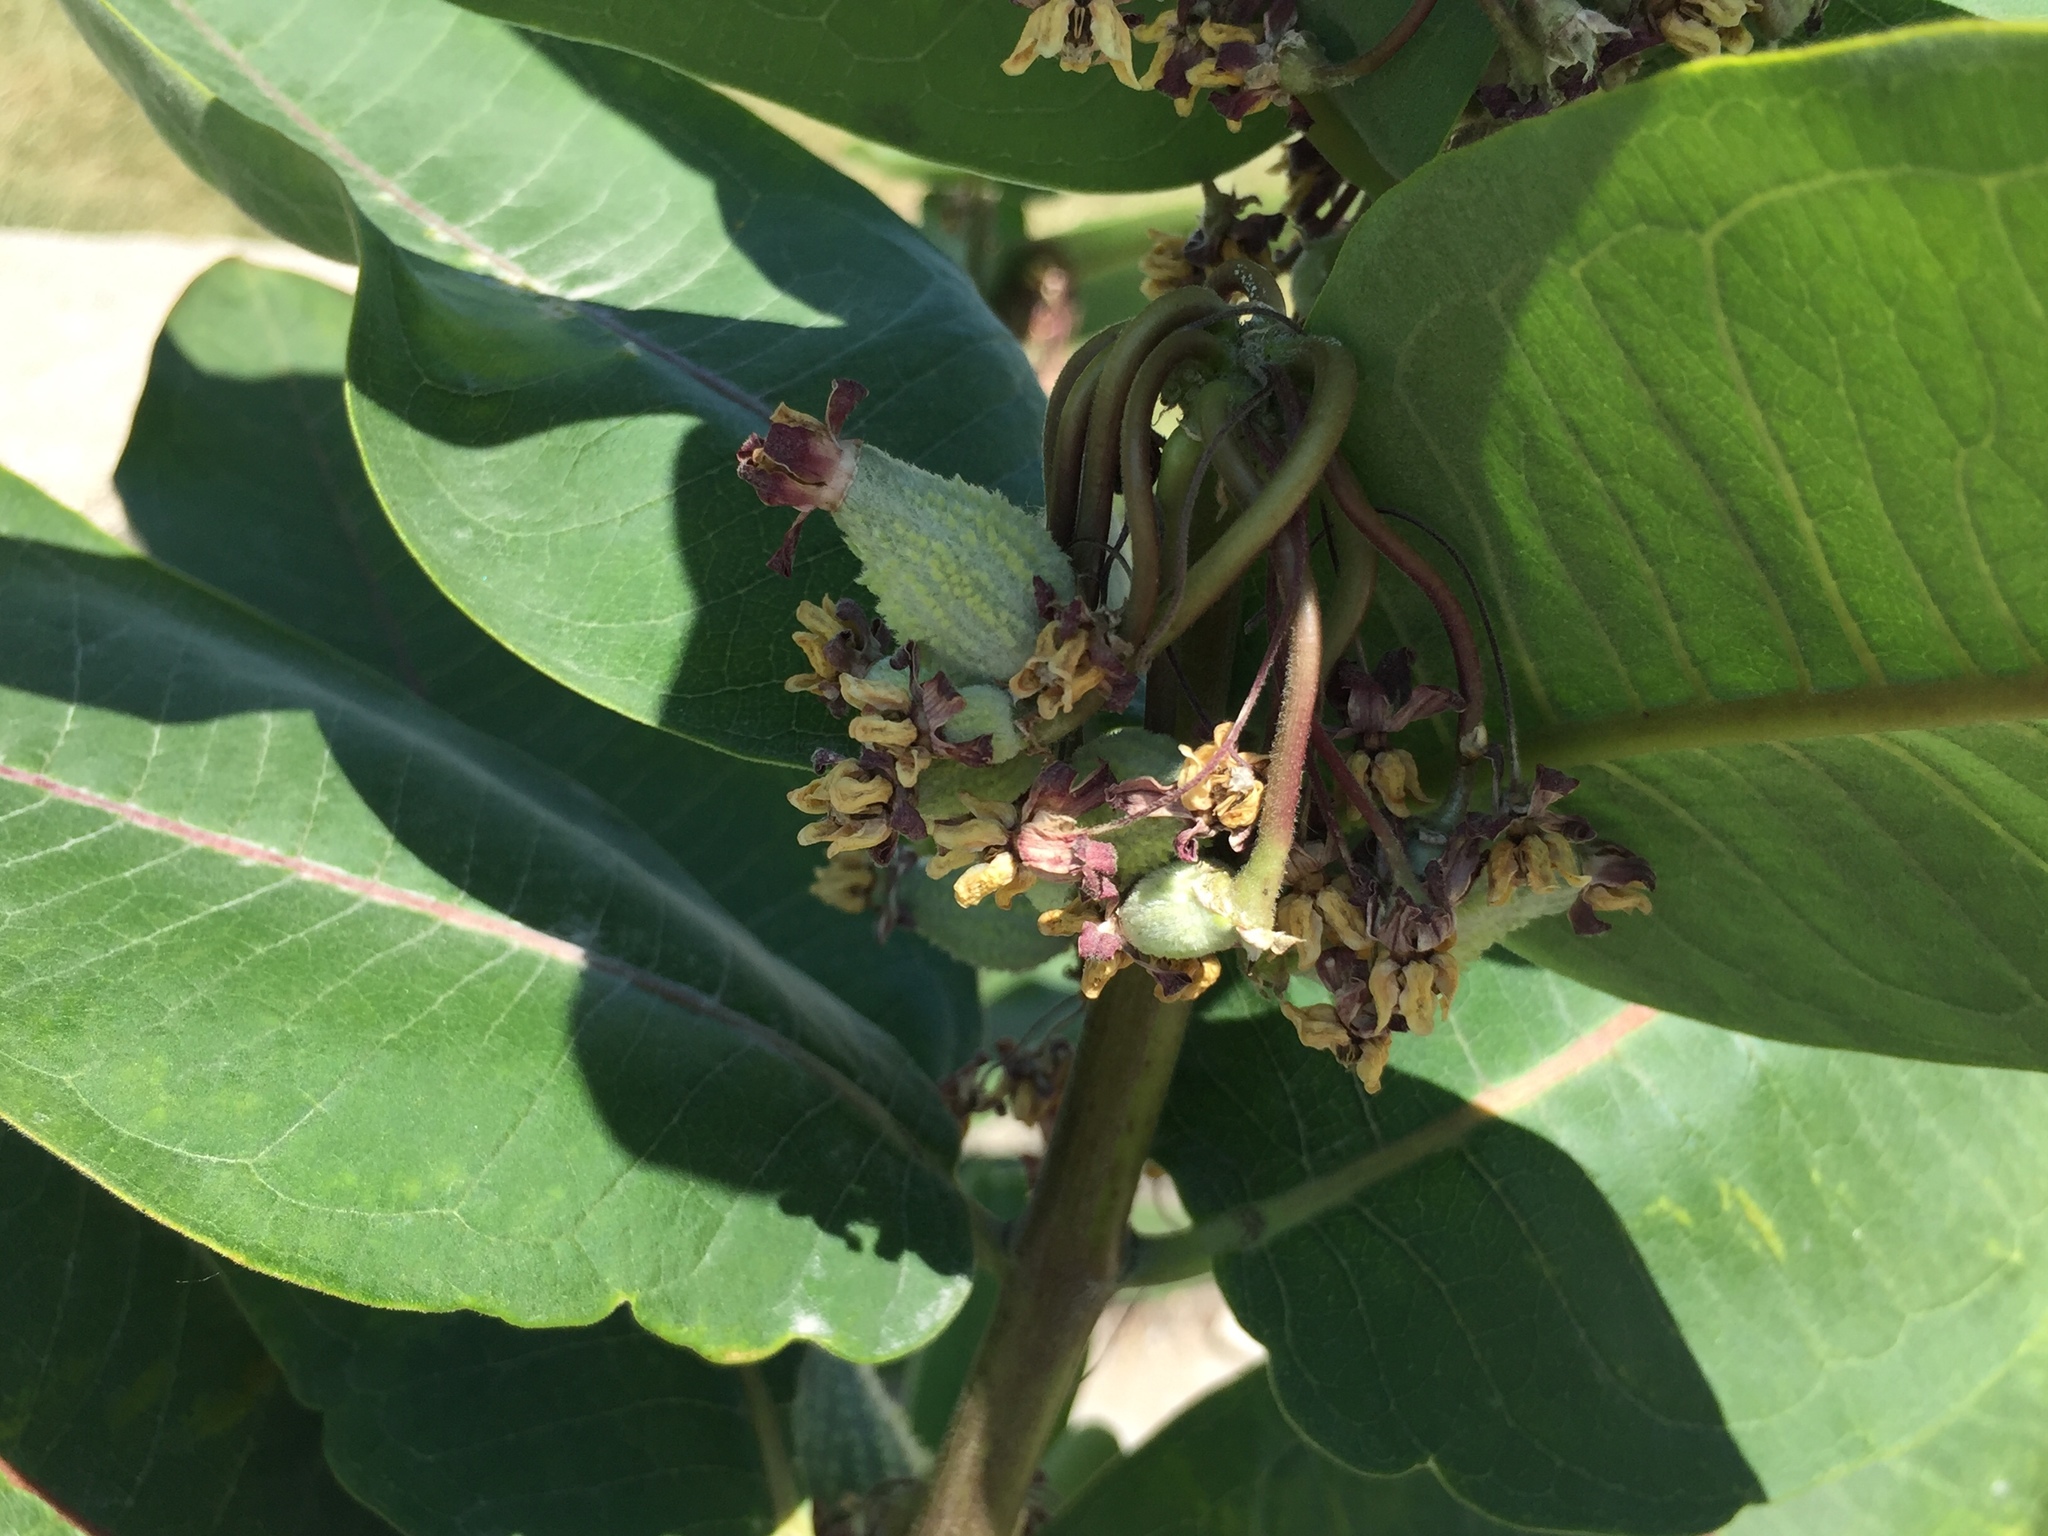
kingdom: Plantae
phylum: Tracheophyta
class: Magnoliopsida
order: Gentianales
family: Apocynaceae
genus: Asclepias
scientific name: Asclepias syriaca
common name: Common milkweed
